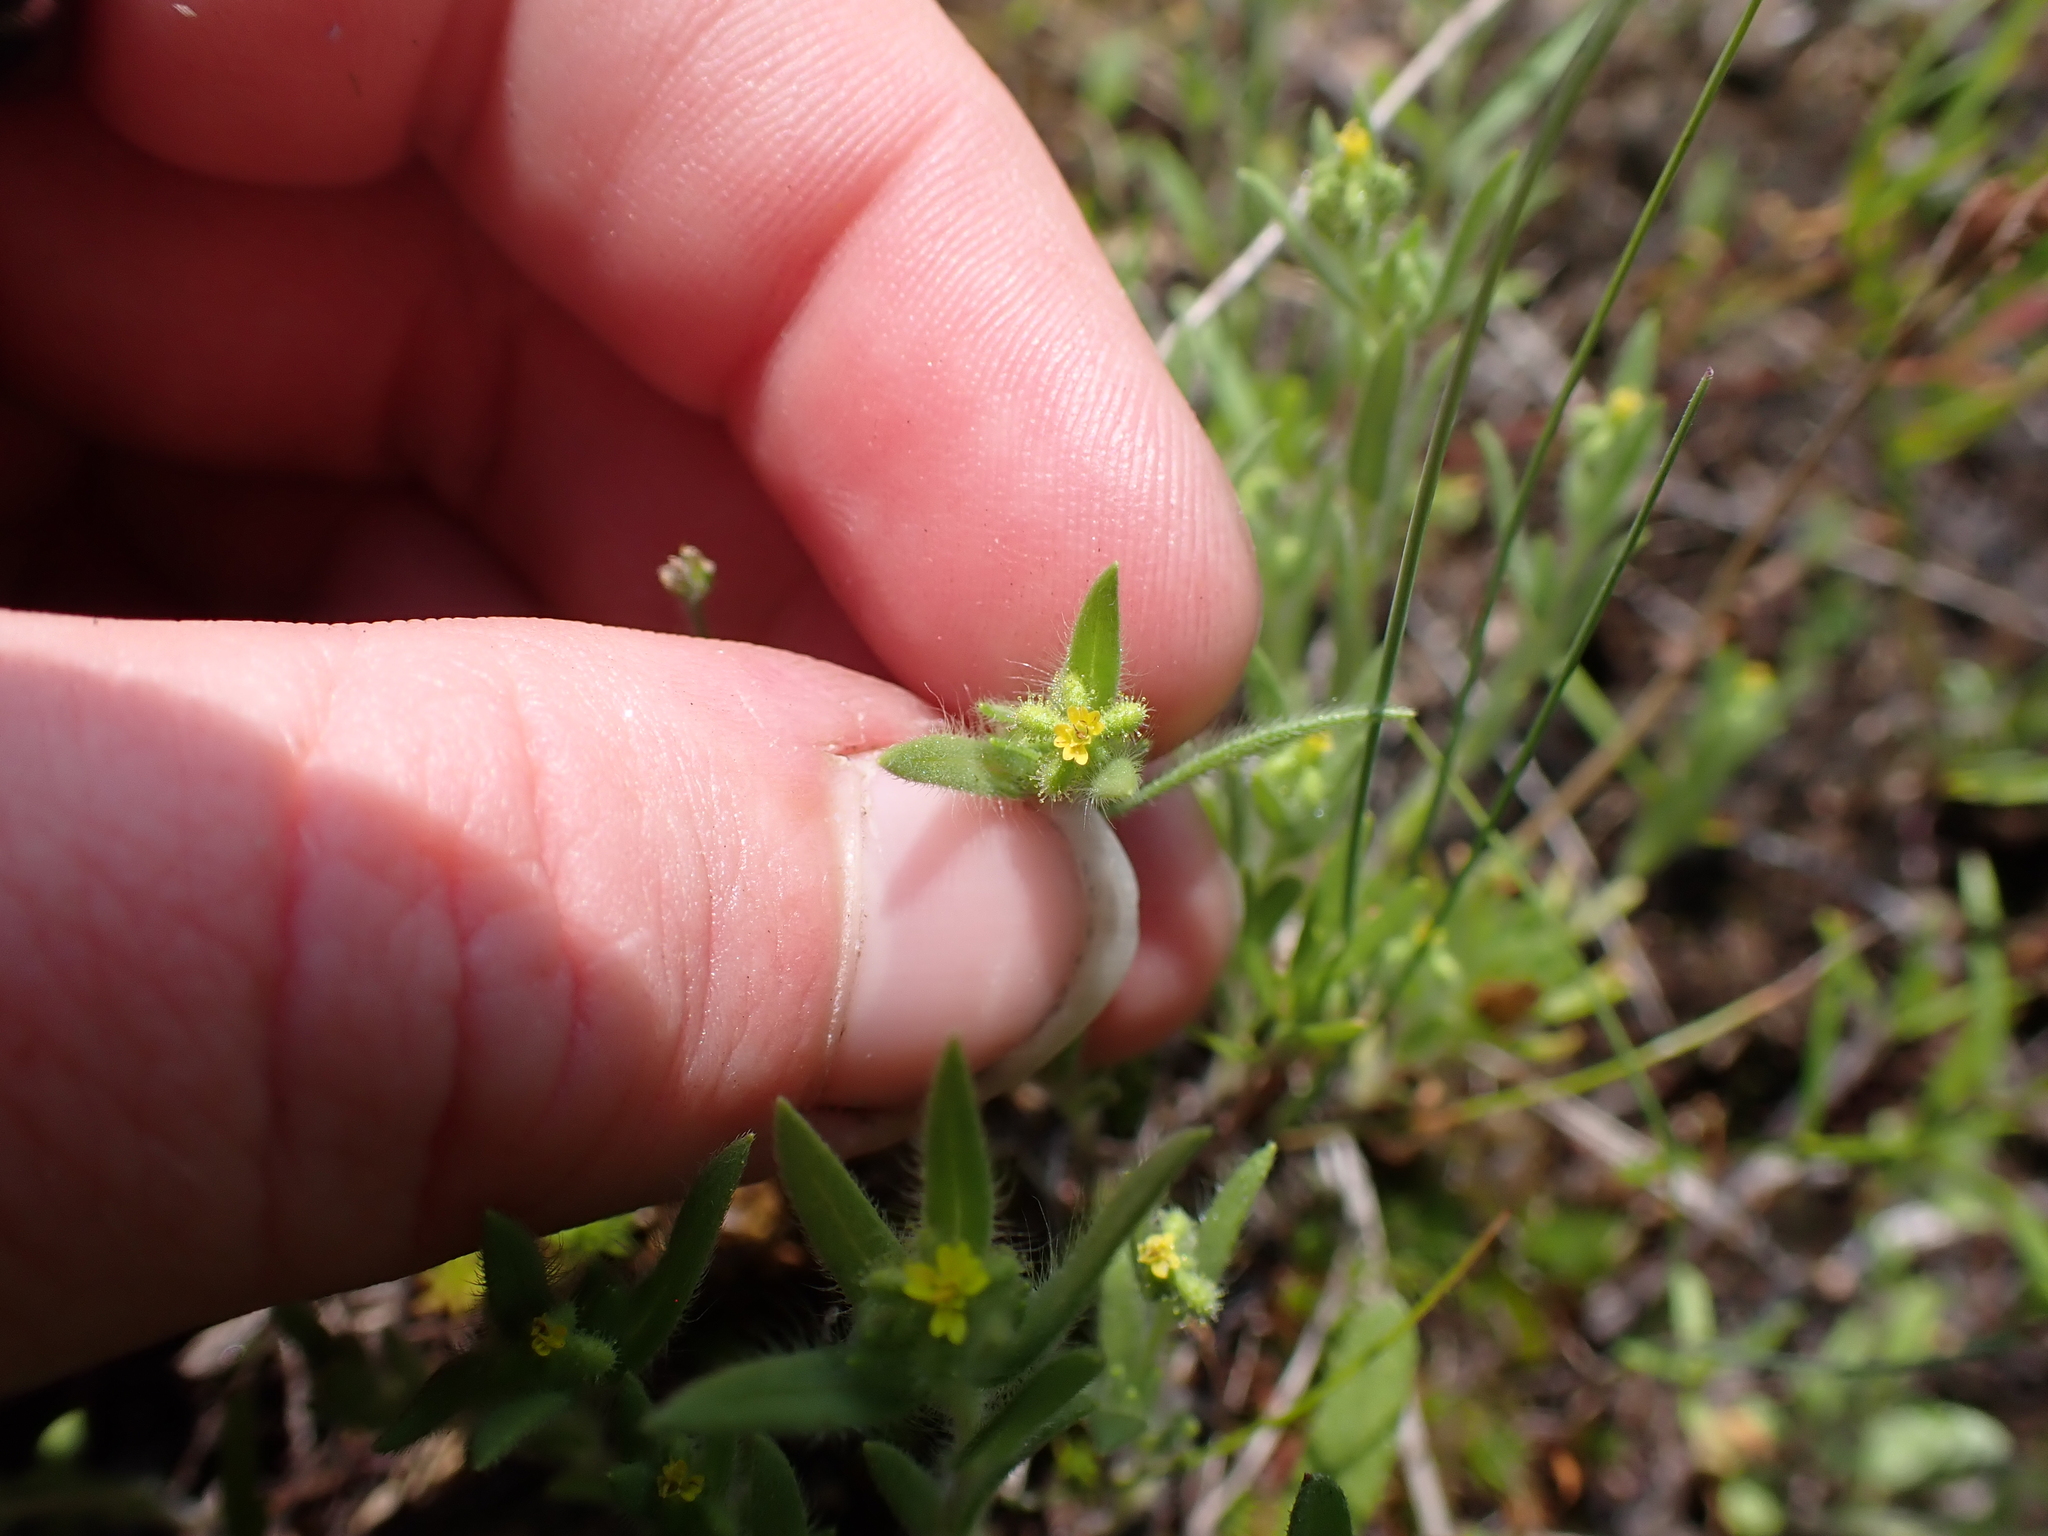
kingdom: Plantae
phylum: Tracheophyta
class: Magnoliopsida
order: Asterales
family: Asteraceae
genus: Madia
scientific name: Madia exigua
